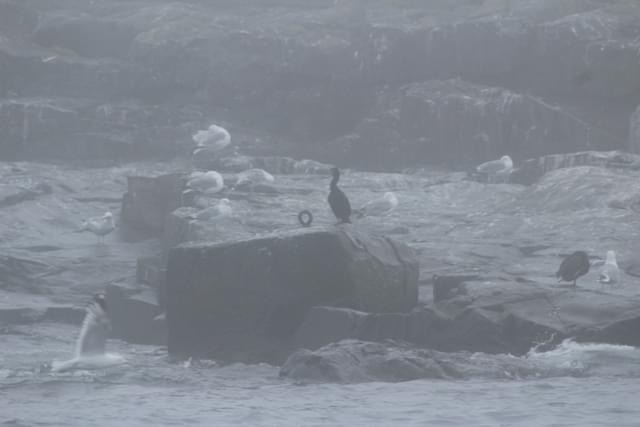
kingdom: Animalia
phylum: Chordata
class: Aves
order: Charadriiformes
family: Laridae
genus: Larus
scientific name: Larus smithsonianus
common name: American herring gull
